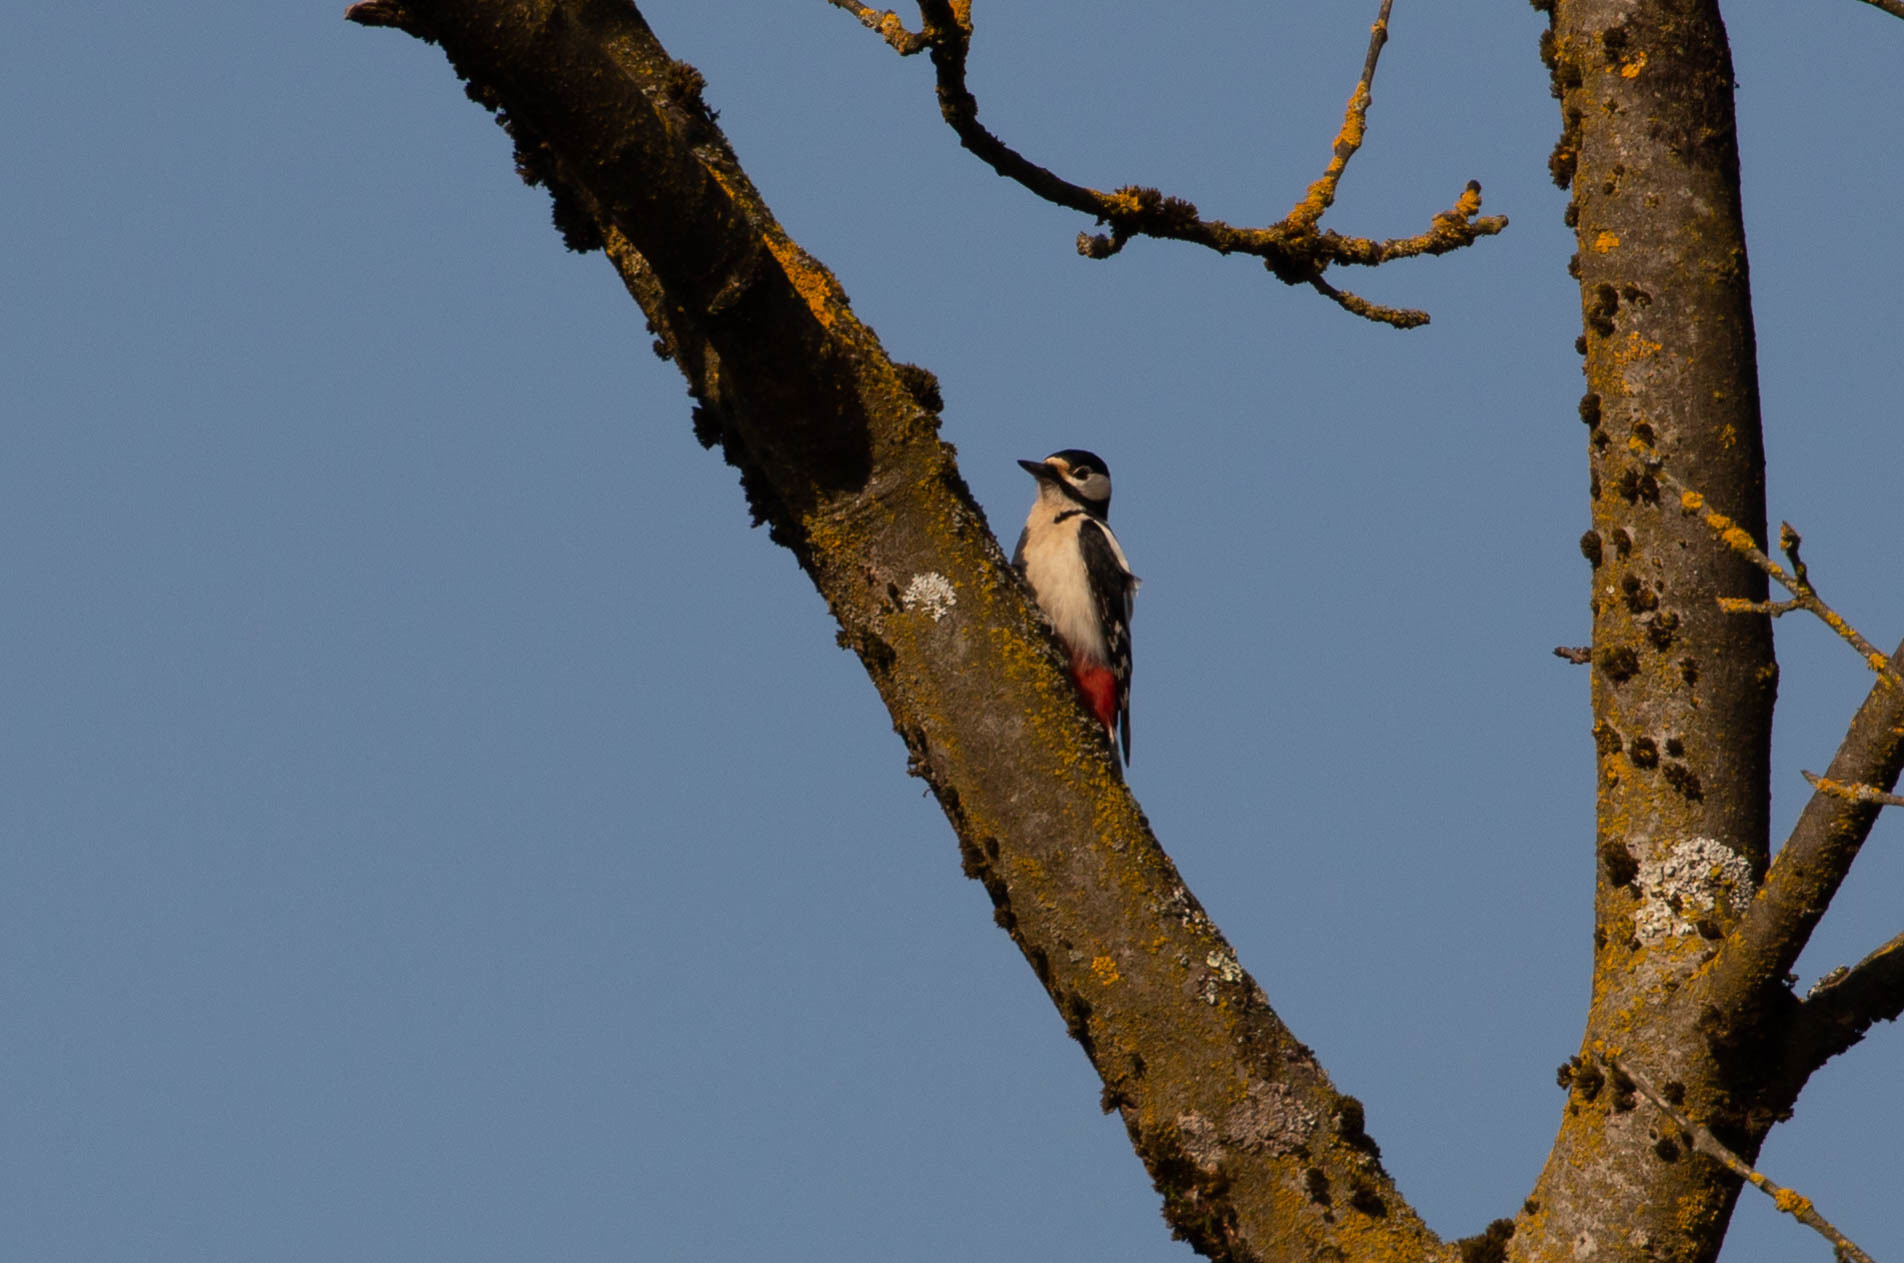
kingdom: Animalia
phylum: Chordata
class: Aves
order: Piciformes
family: Picidae
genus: Dendrocopos
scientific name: Dendrocopos major
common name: Great spotted woodpecker
